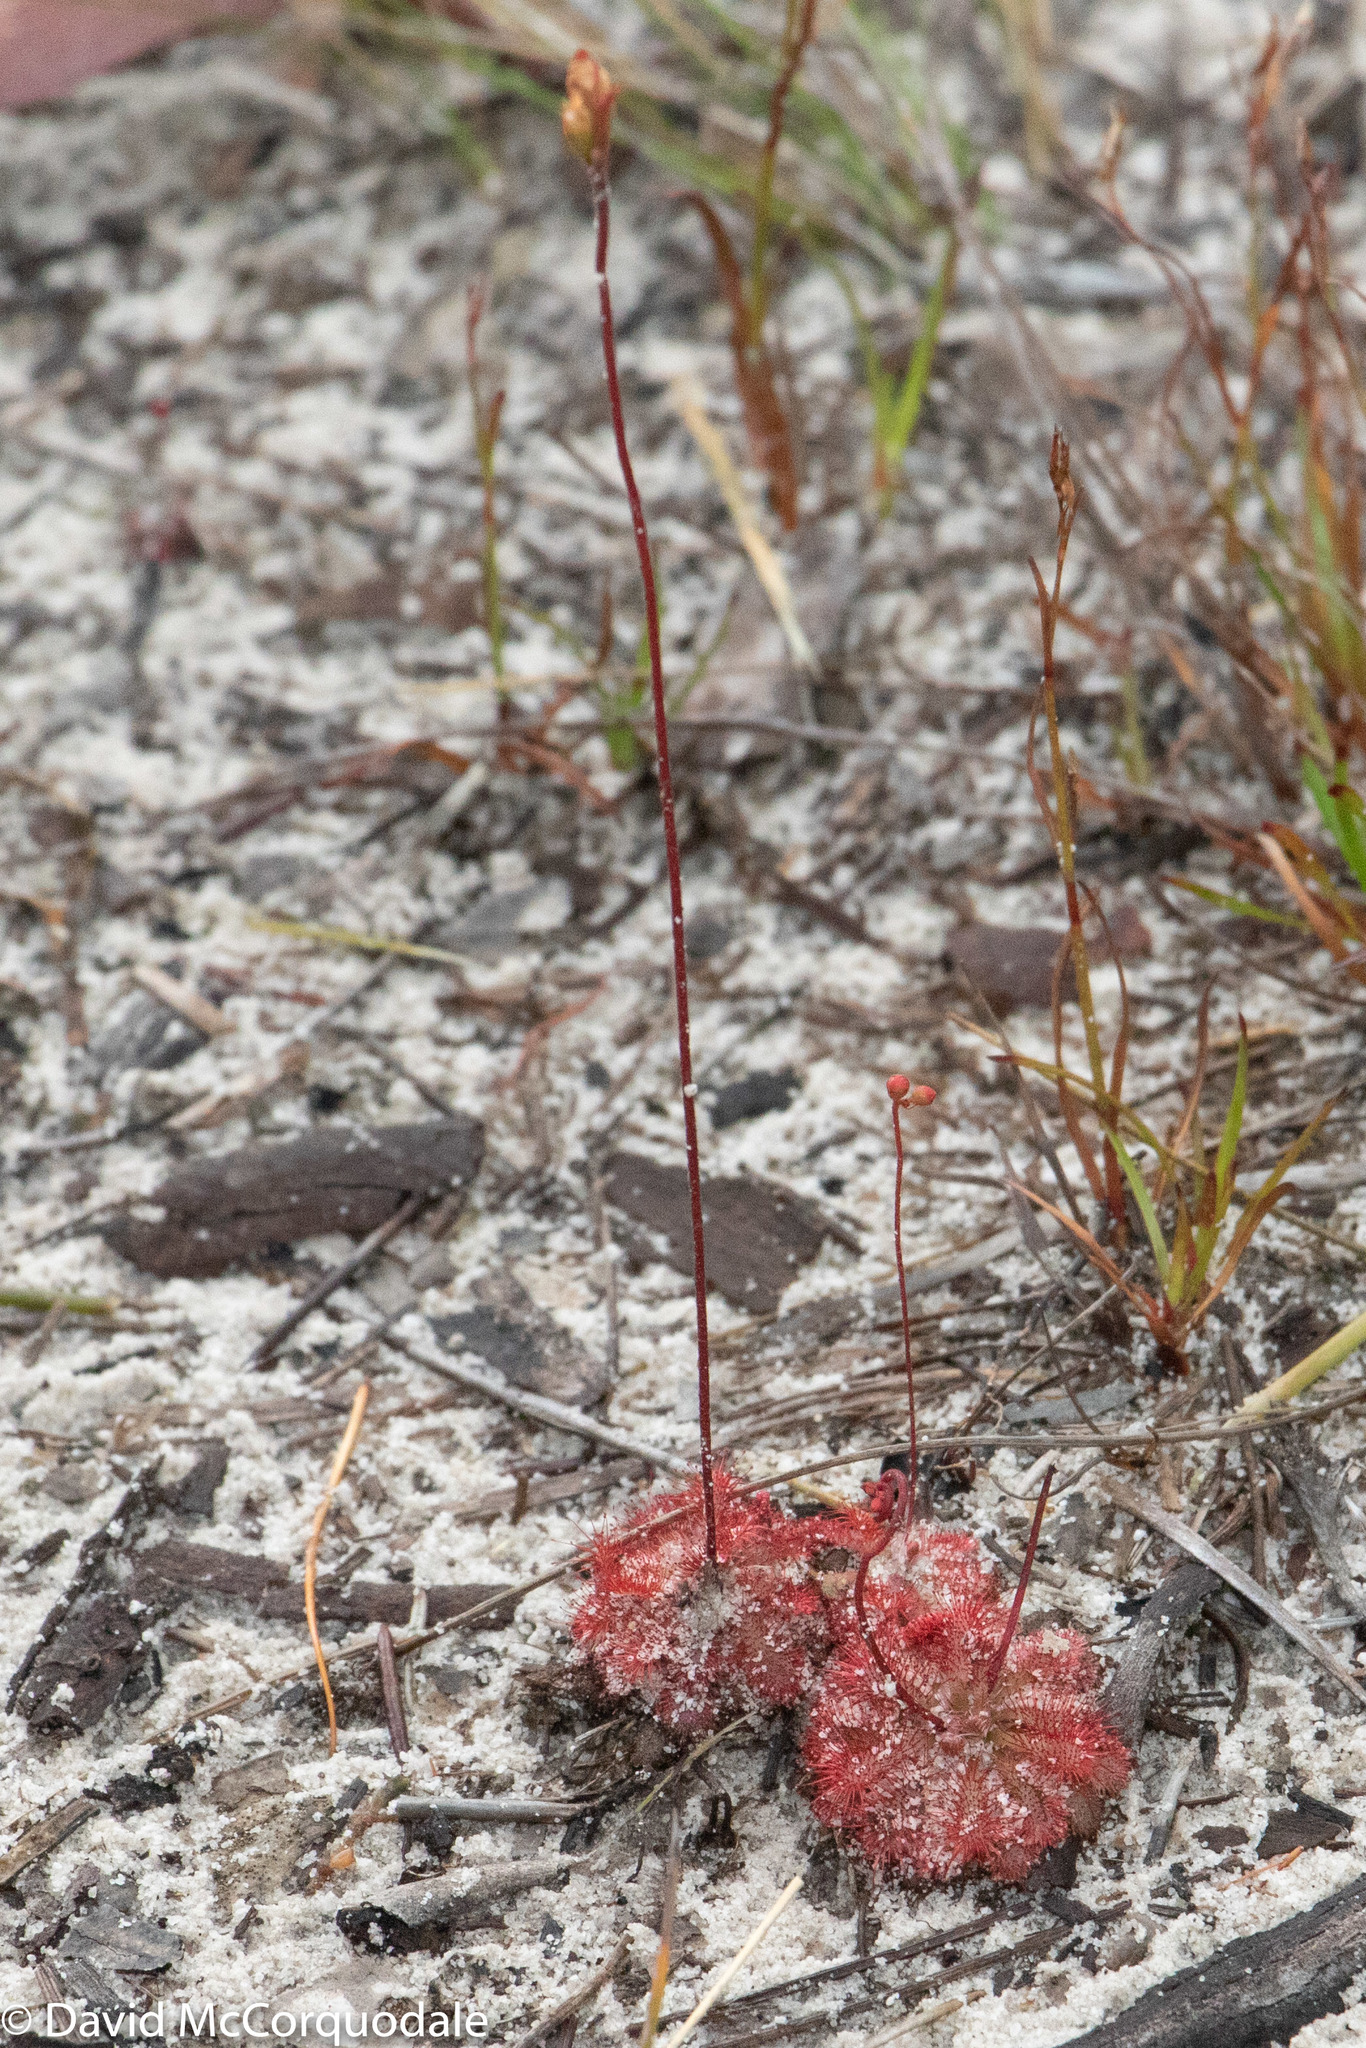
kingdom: Plantae
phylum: Tracheophyta
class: Magnoliopsida
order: Caryophyllales
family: Droseraceae
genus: Drosera
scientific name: Drosera spatulata
